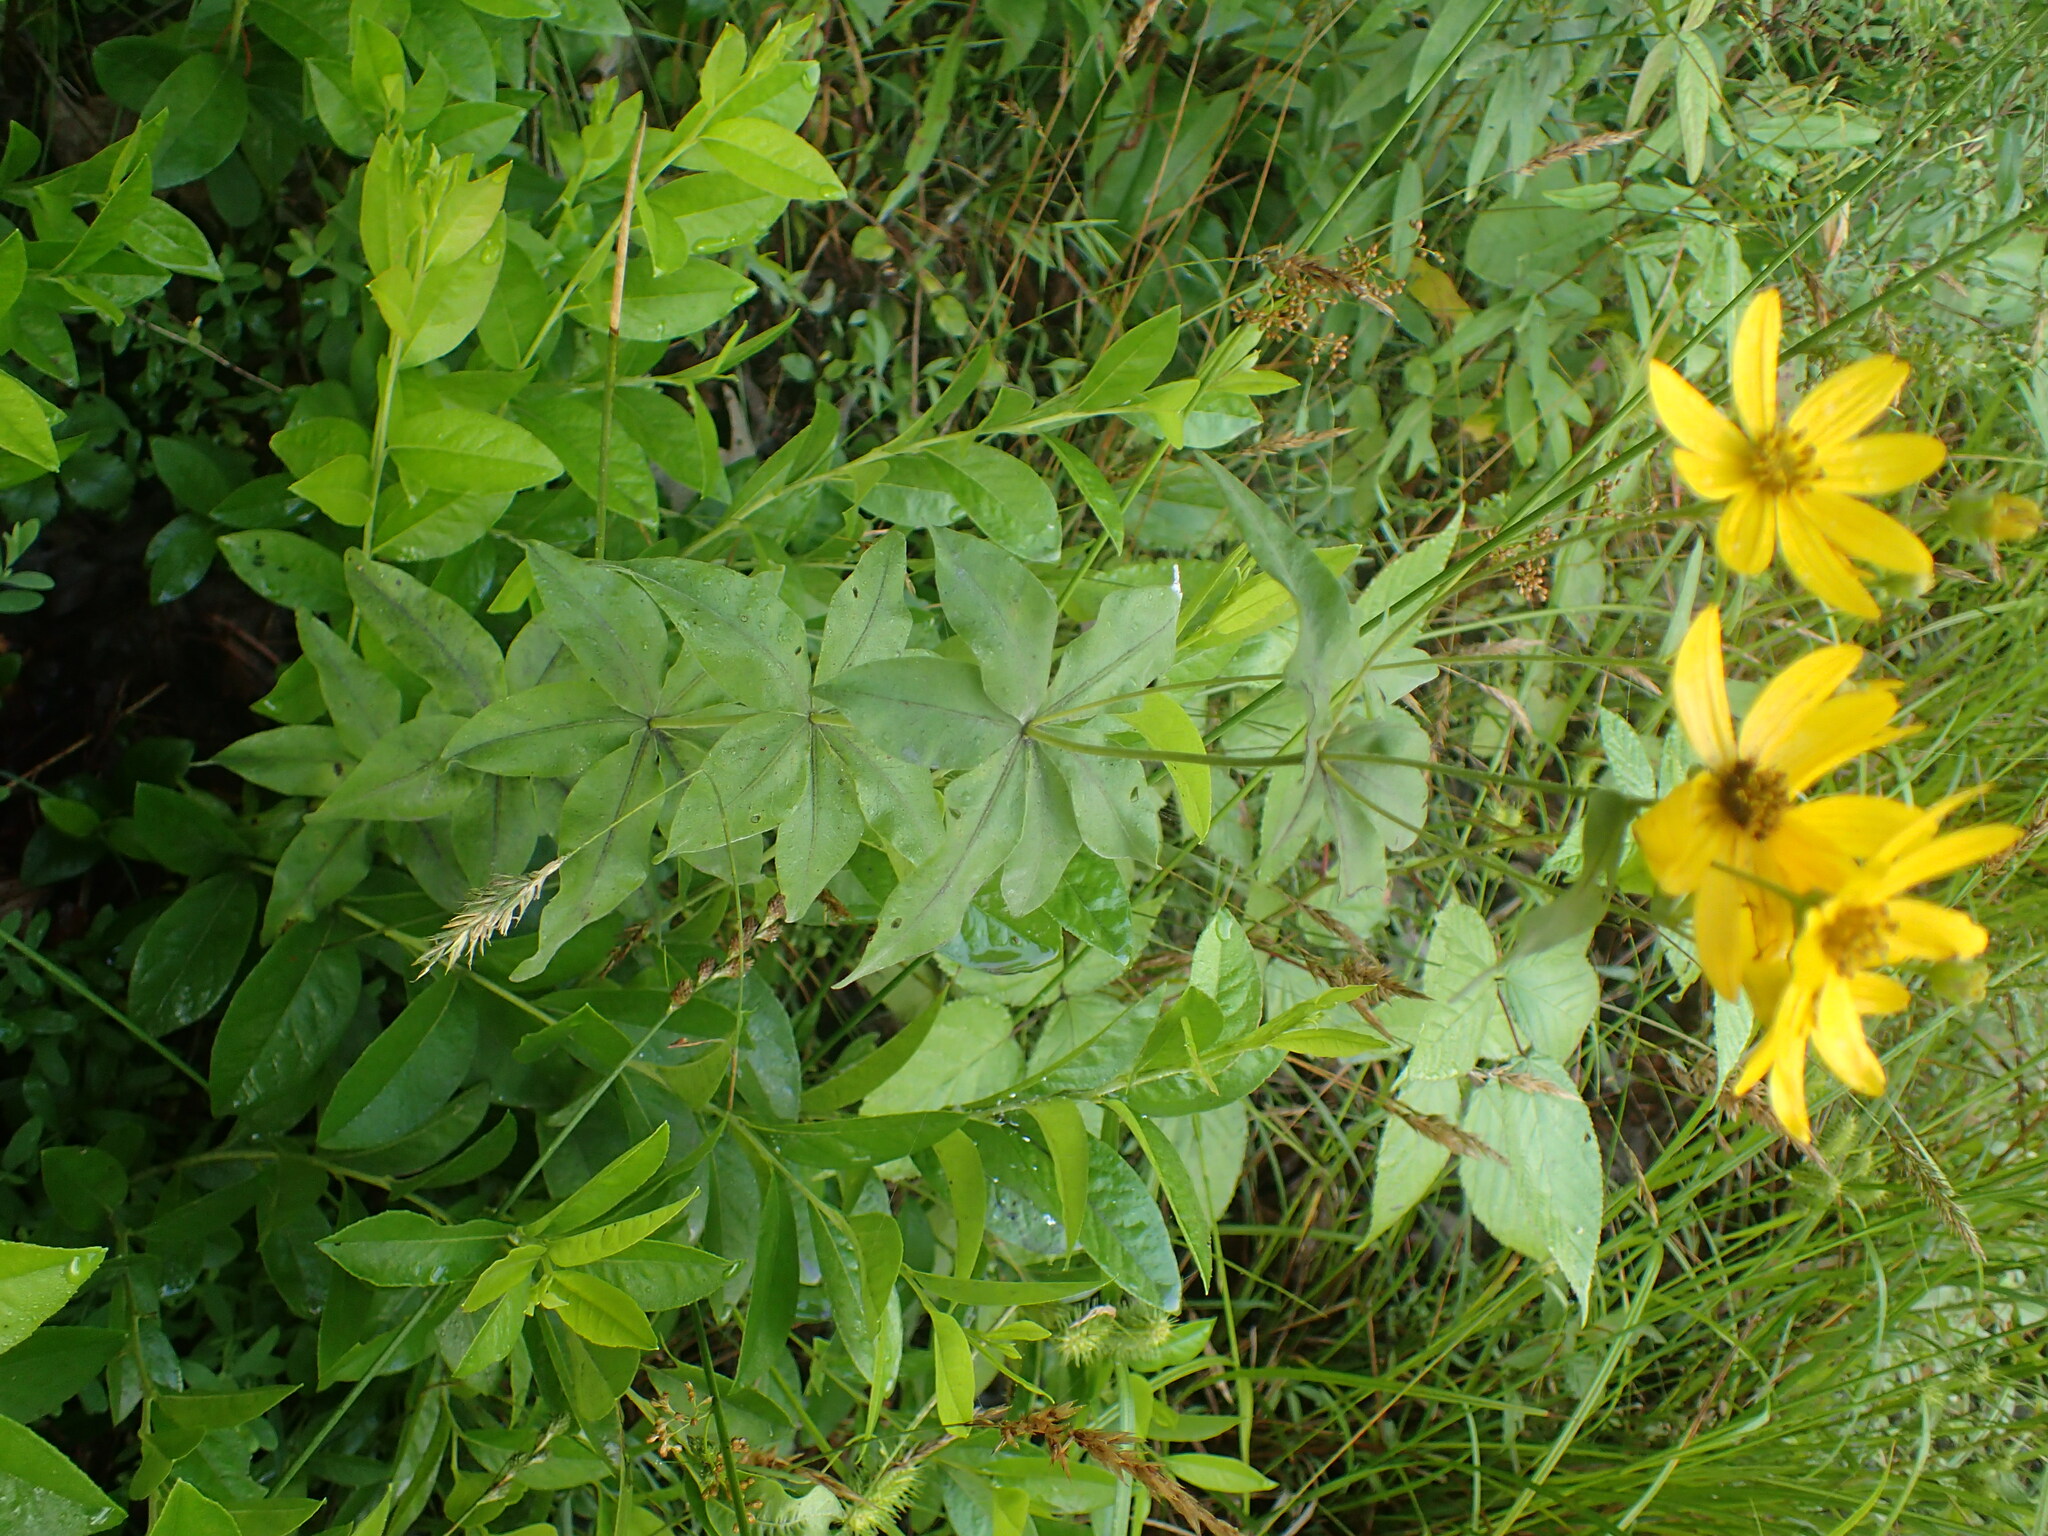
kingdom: Plantae
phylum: Tracheophyta
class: Magnoliopsida
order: Asterales
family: Asteraceae
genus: Coreopsis
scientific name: Coreopsis major
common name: Forest tickseed
